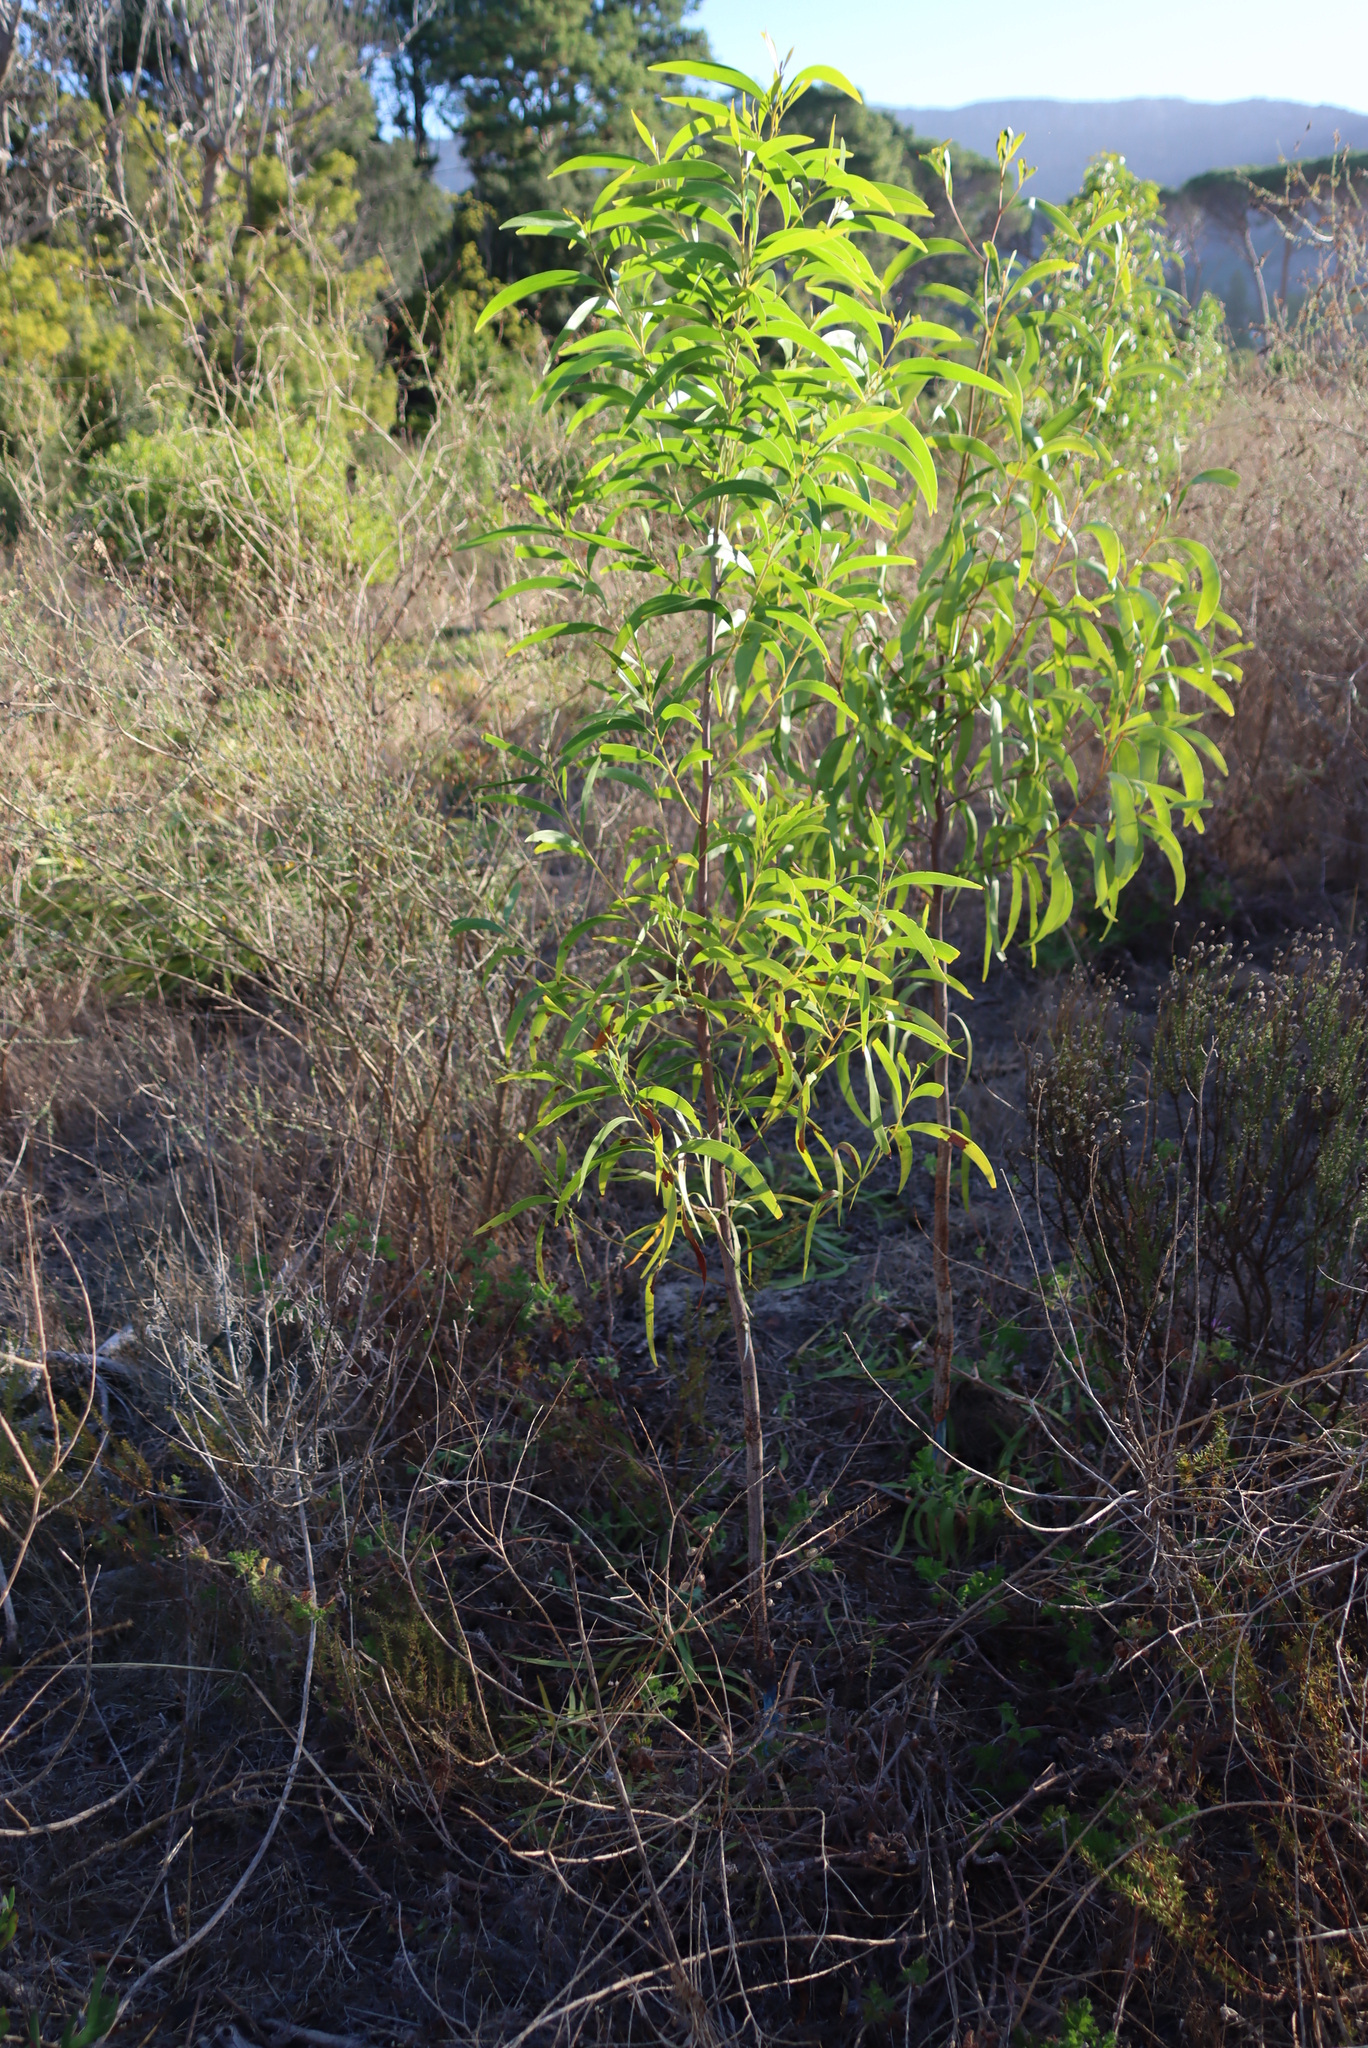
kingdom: Plantae
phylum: Tracheophyta
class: Magnoliopsida
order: Fabales
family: Fabaceae
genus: Acacia
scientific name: Acacia implexa
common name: Black wattle
